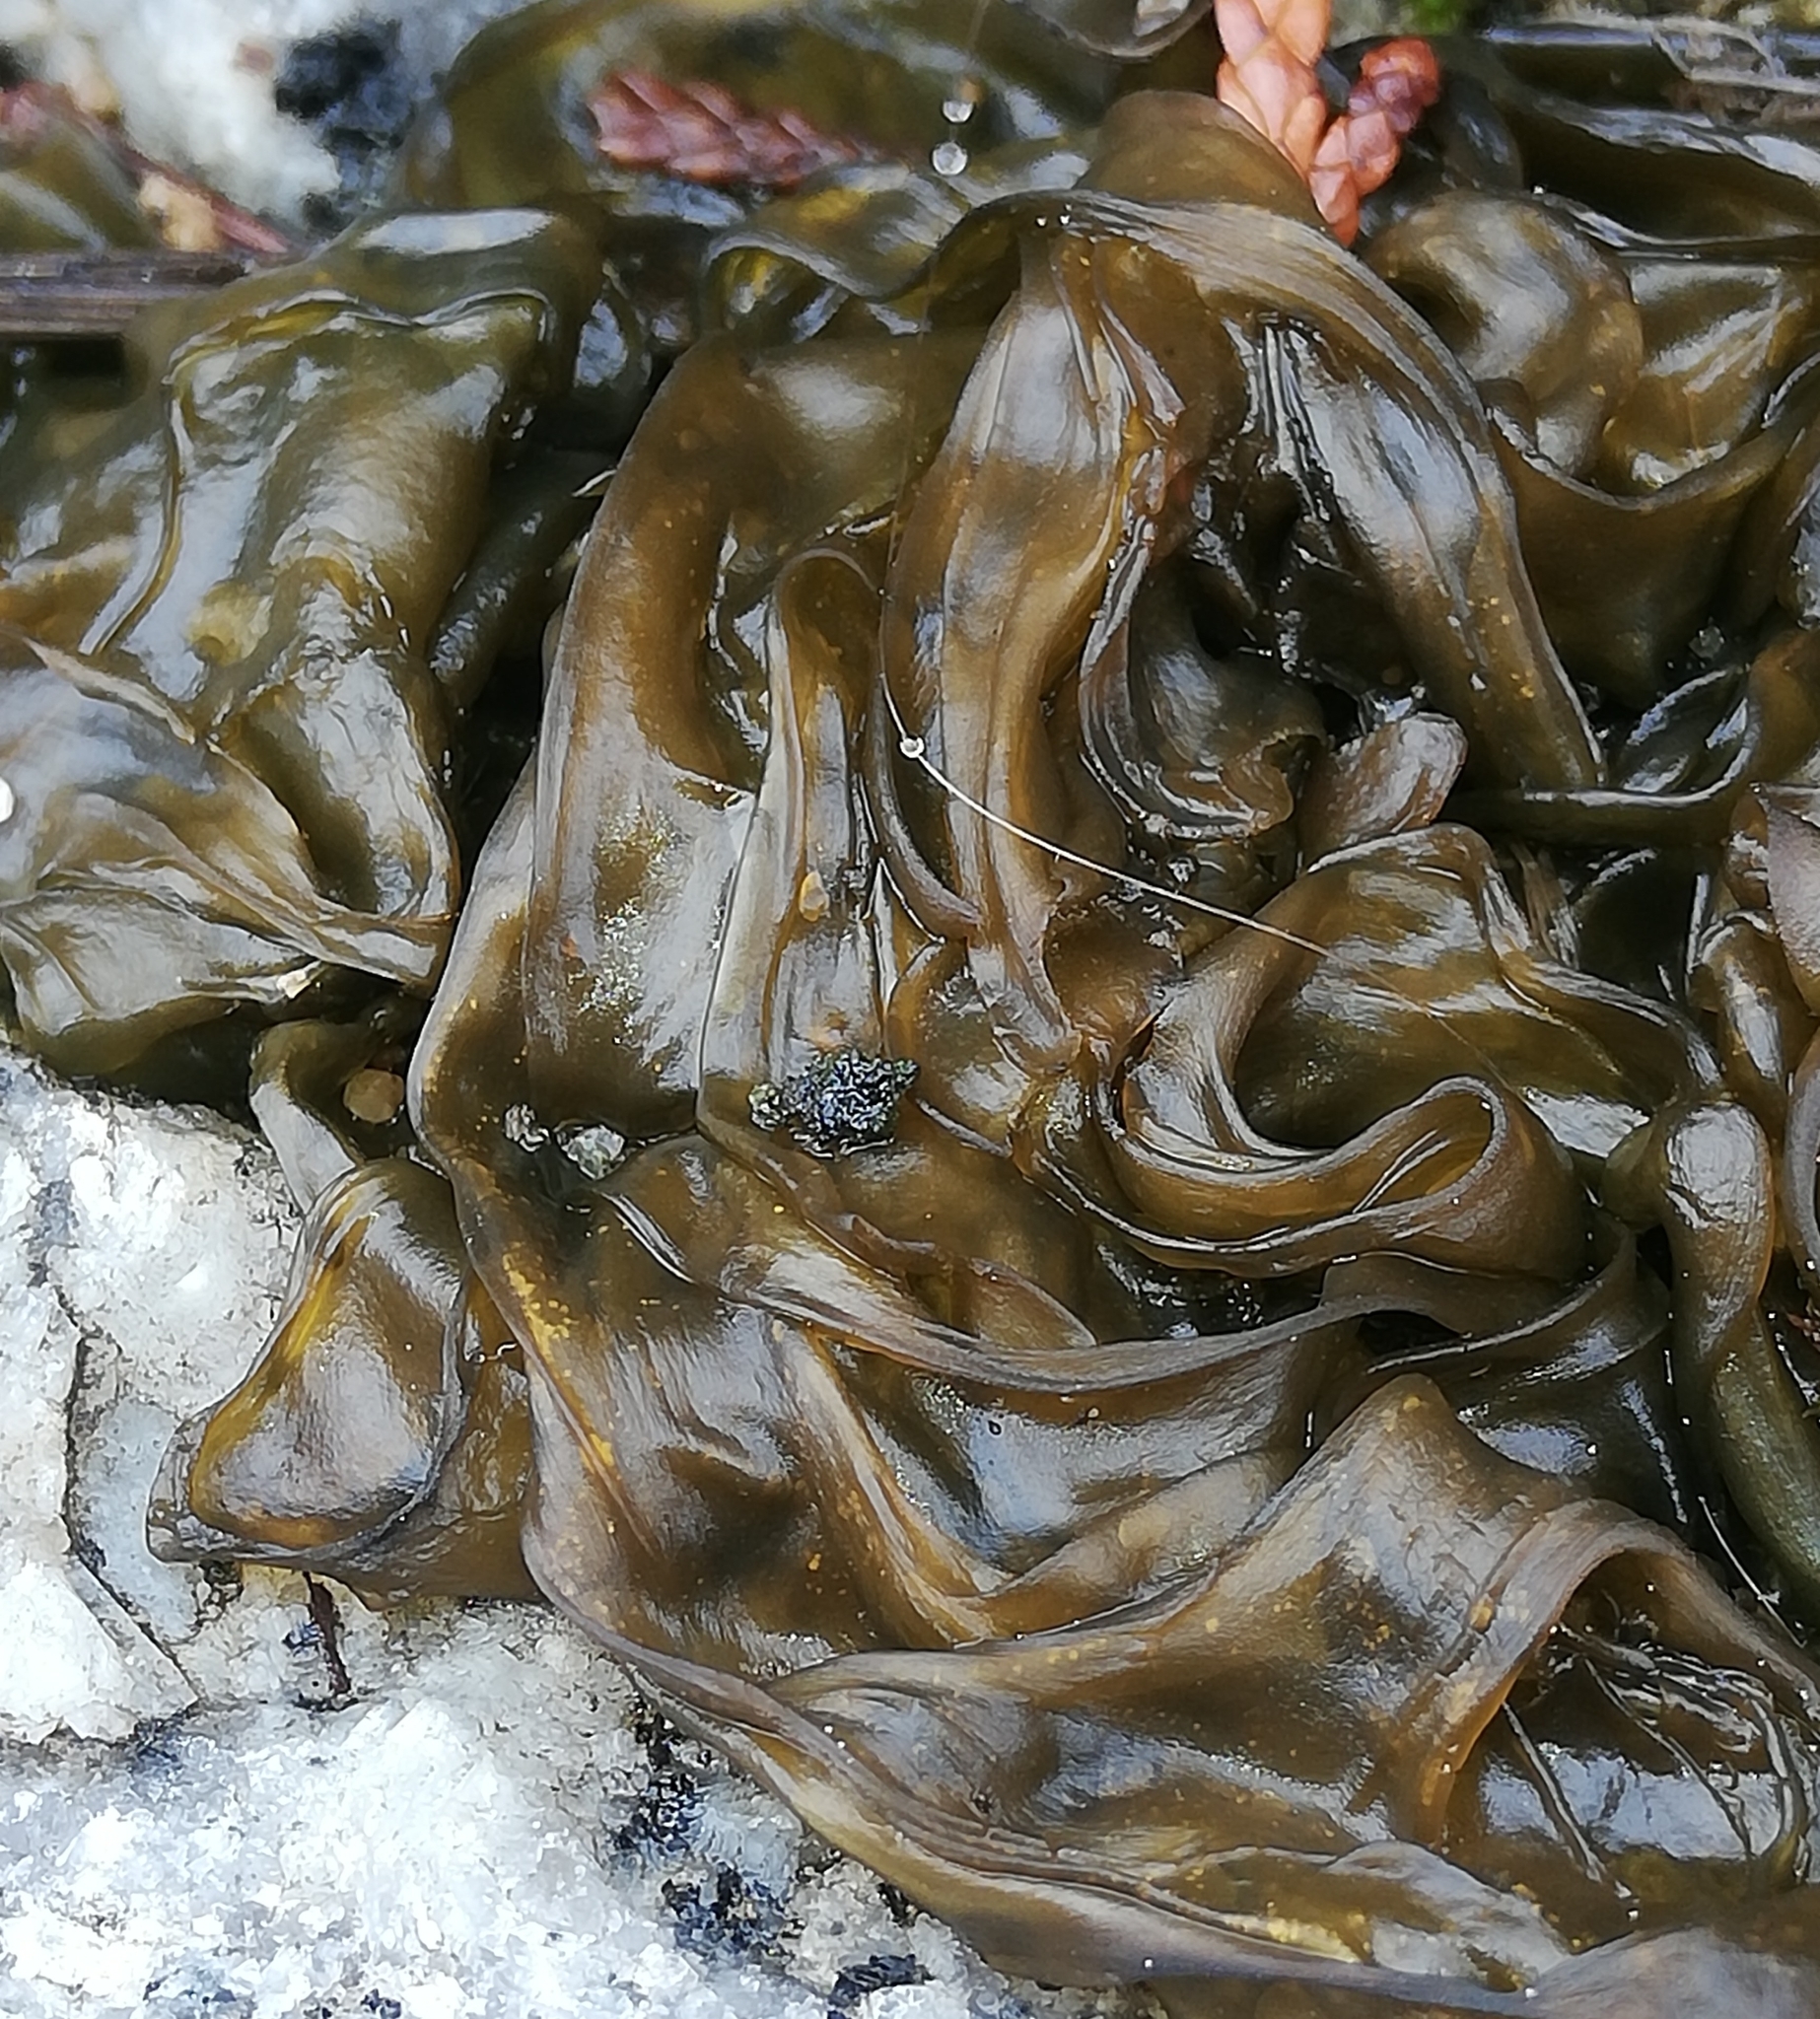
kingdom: Bacteria
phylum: Cyanobacteria
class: Cyanobacteriia
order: Cyanobacteriales
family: Nostocaceae
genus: Nostoc
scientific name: Nostoc commune
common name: Star jelly
